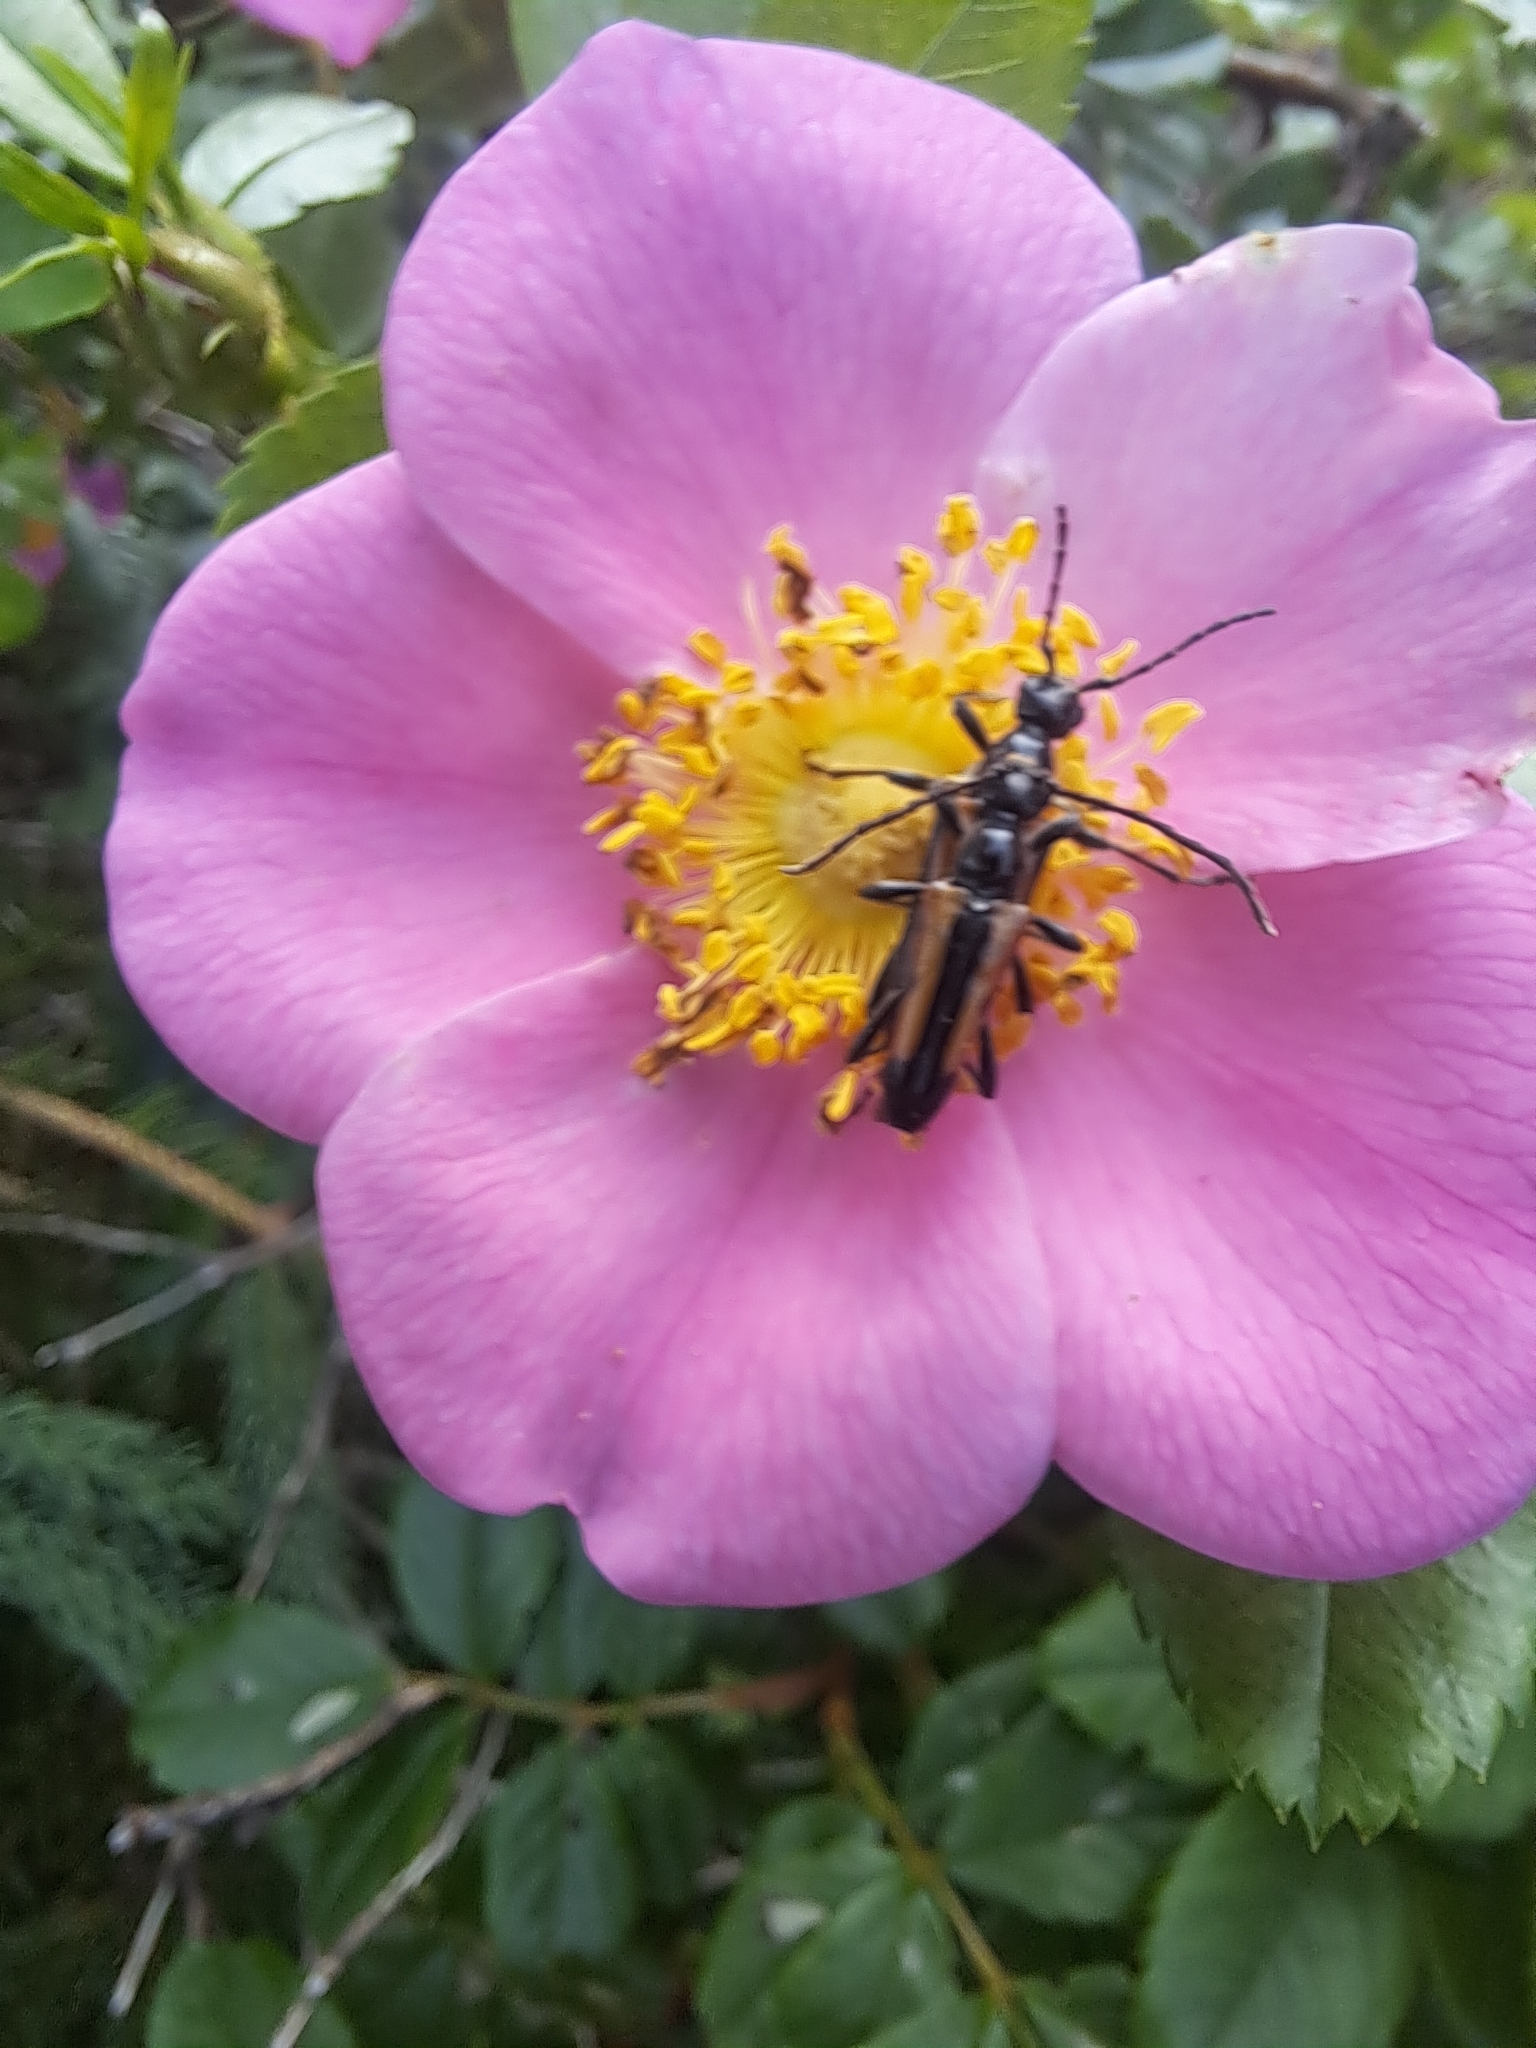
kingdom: Animalia
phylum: Arthropoda
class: Insecta
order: Coleoptera
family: Cerambycidae
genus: Strangalepta
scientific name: Strangalepta abbreviata
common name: Strangalepta flower longhorn beetle
